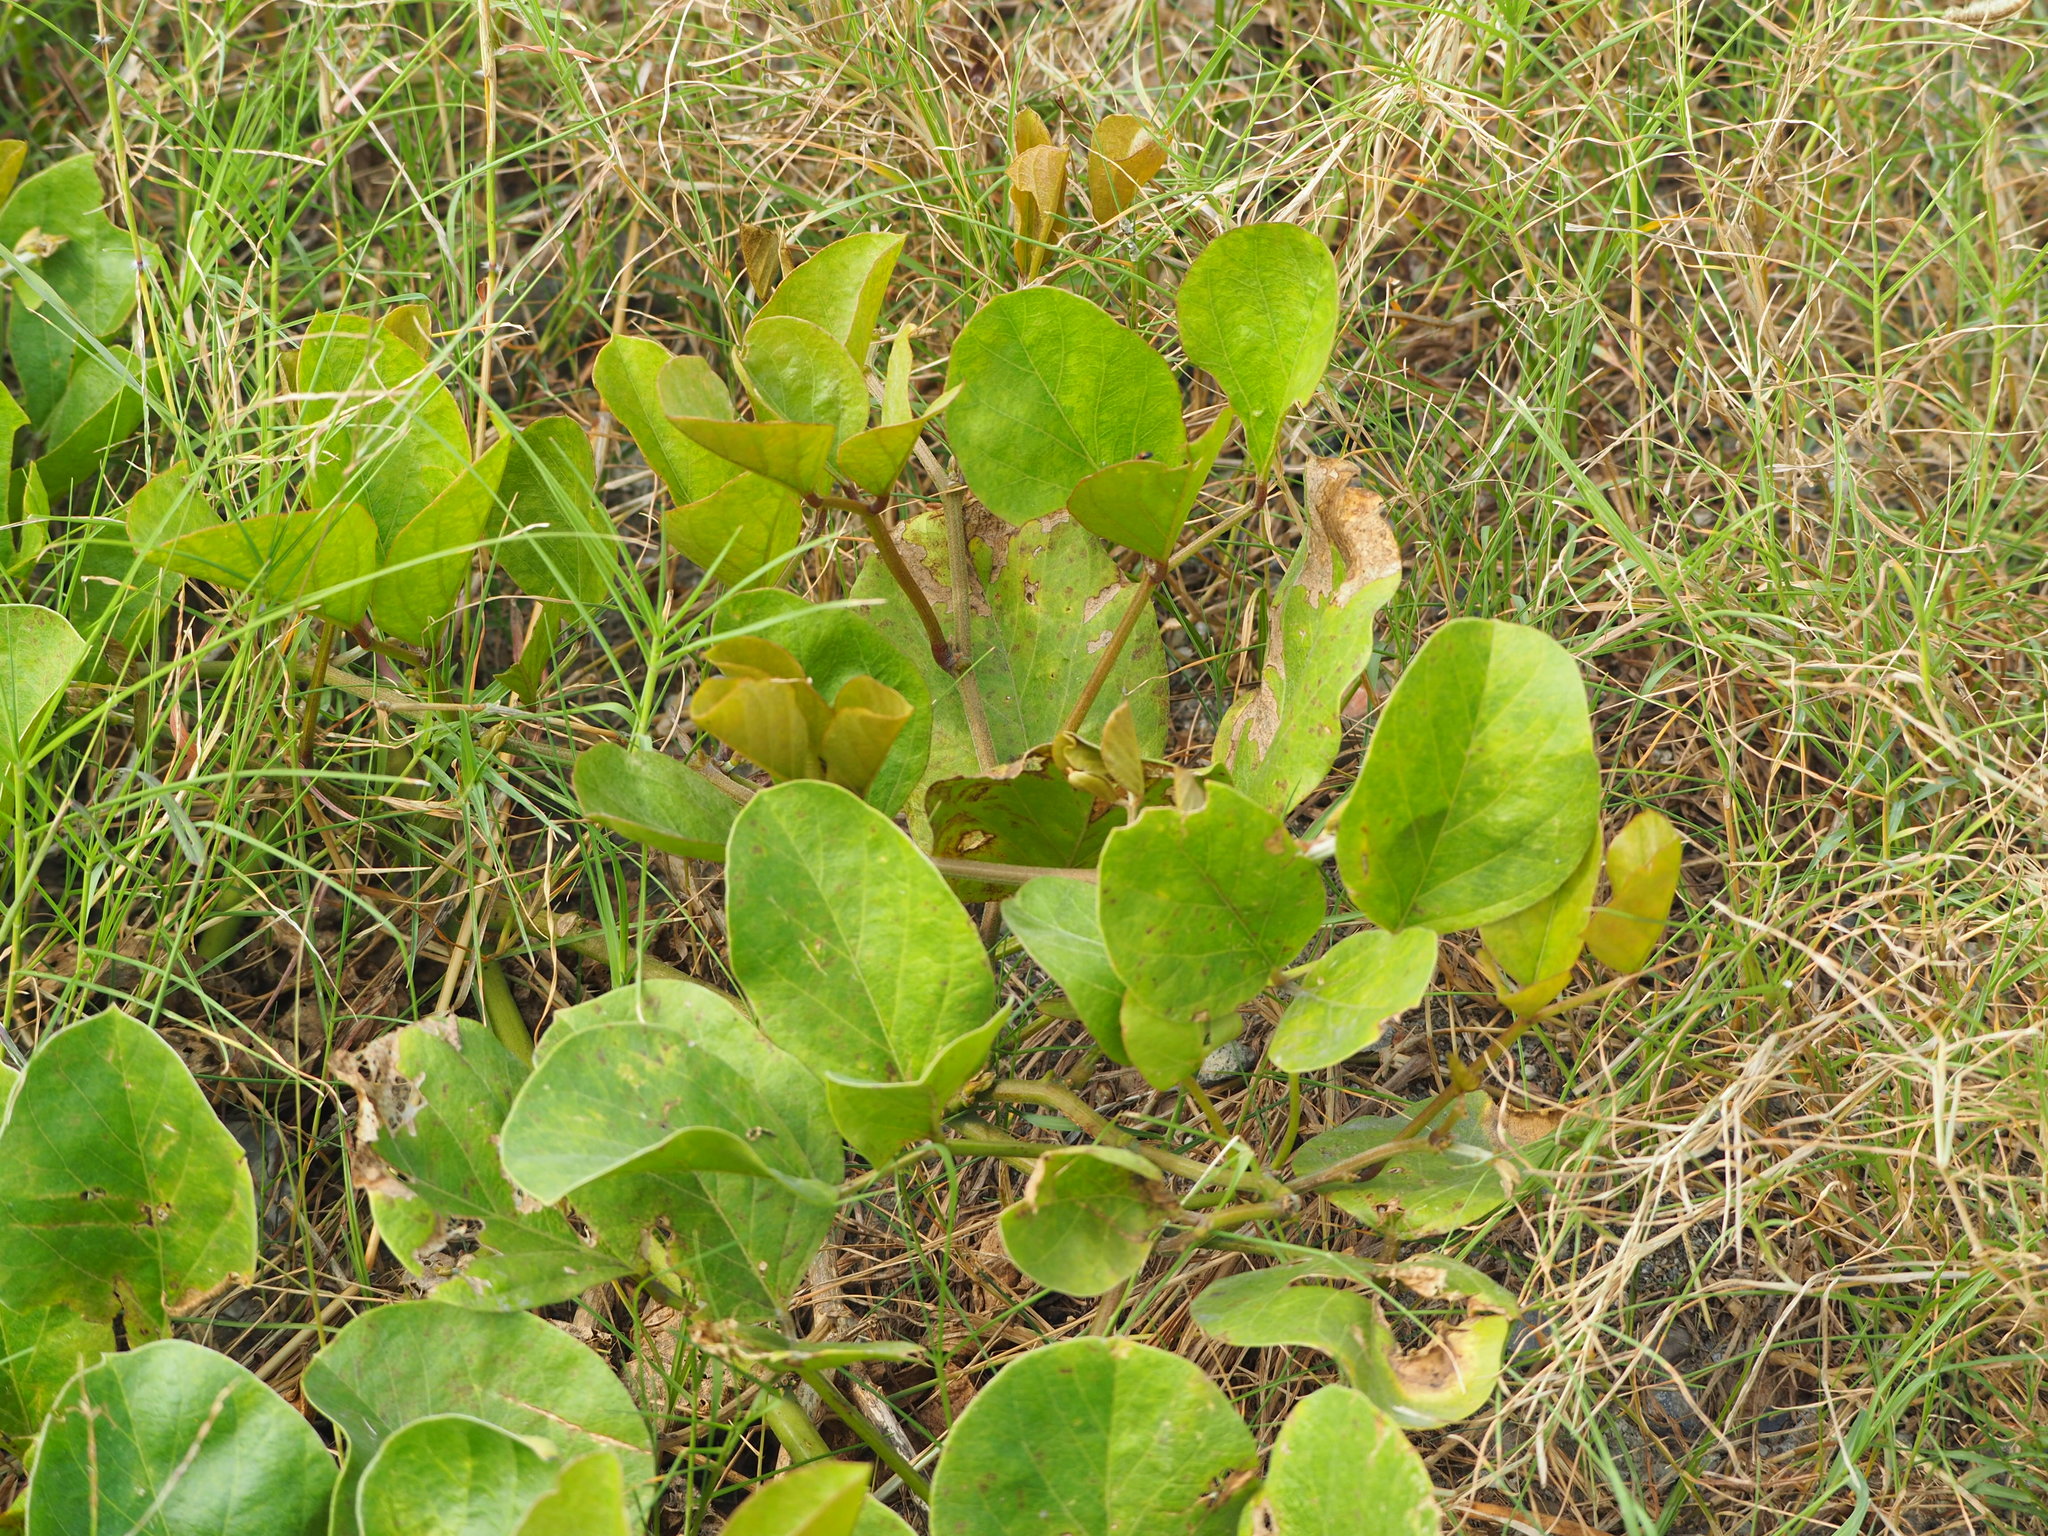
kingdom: Plantae
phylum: Tracheophyta
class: Magnoliopsida
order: Fabales
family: Fabaceae
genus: Canavalia
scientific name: Canavalia lineata
